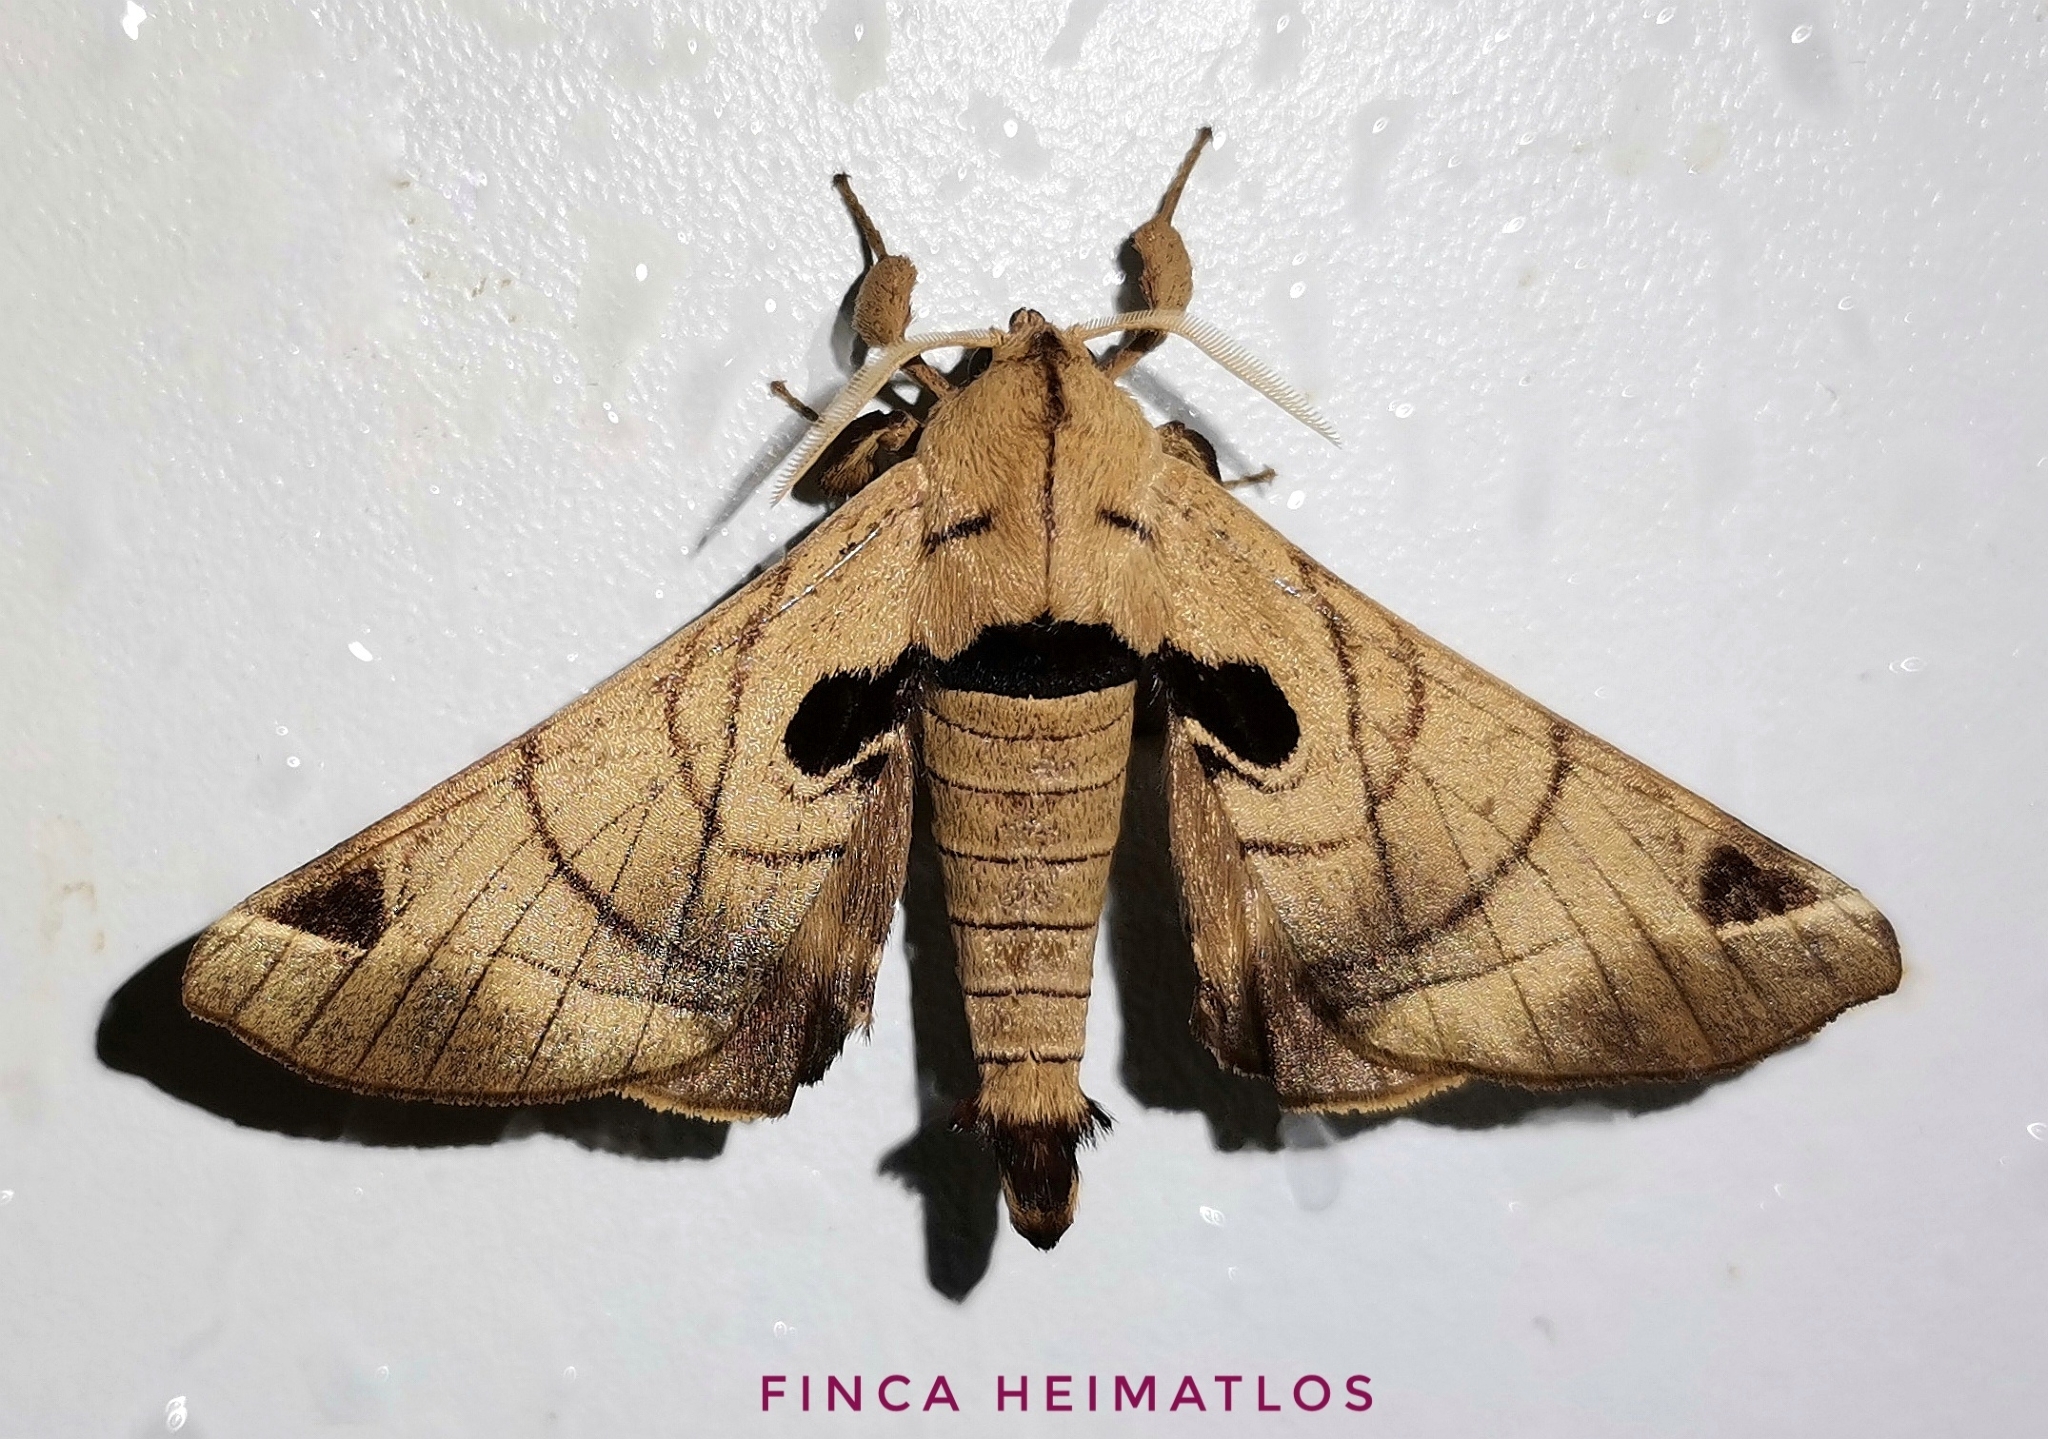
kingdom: Animalia
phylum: Arthropoda
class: Insecta
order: Lepidoptera
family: Apatelodidae
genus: Hygrochroa
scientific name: Hygrochroa Apatelodes pandarioides
